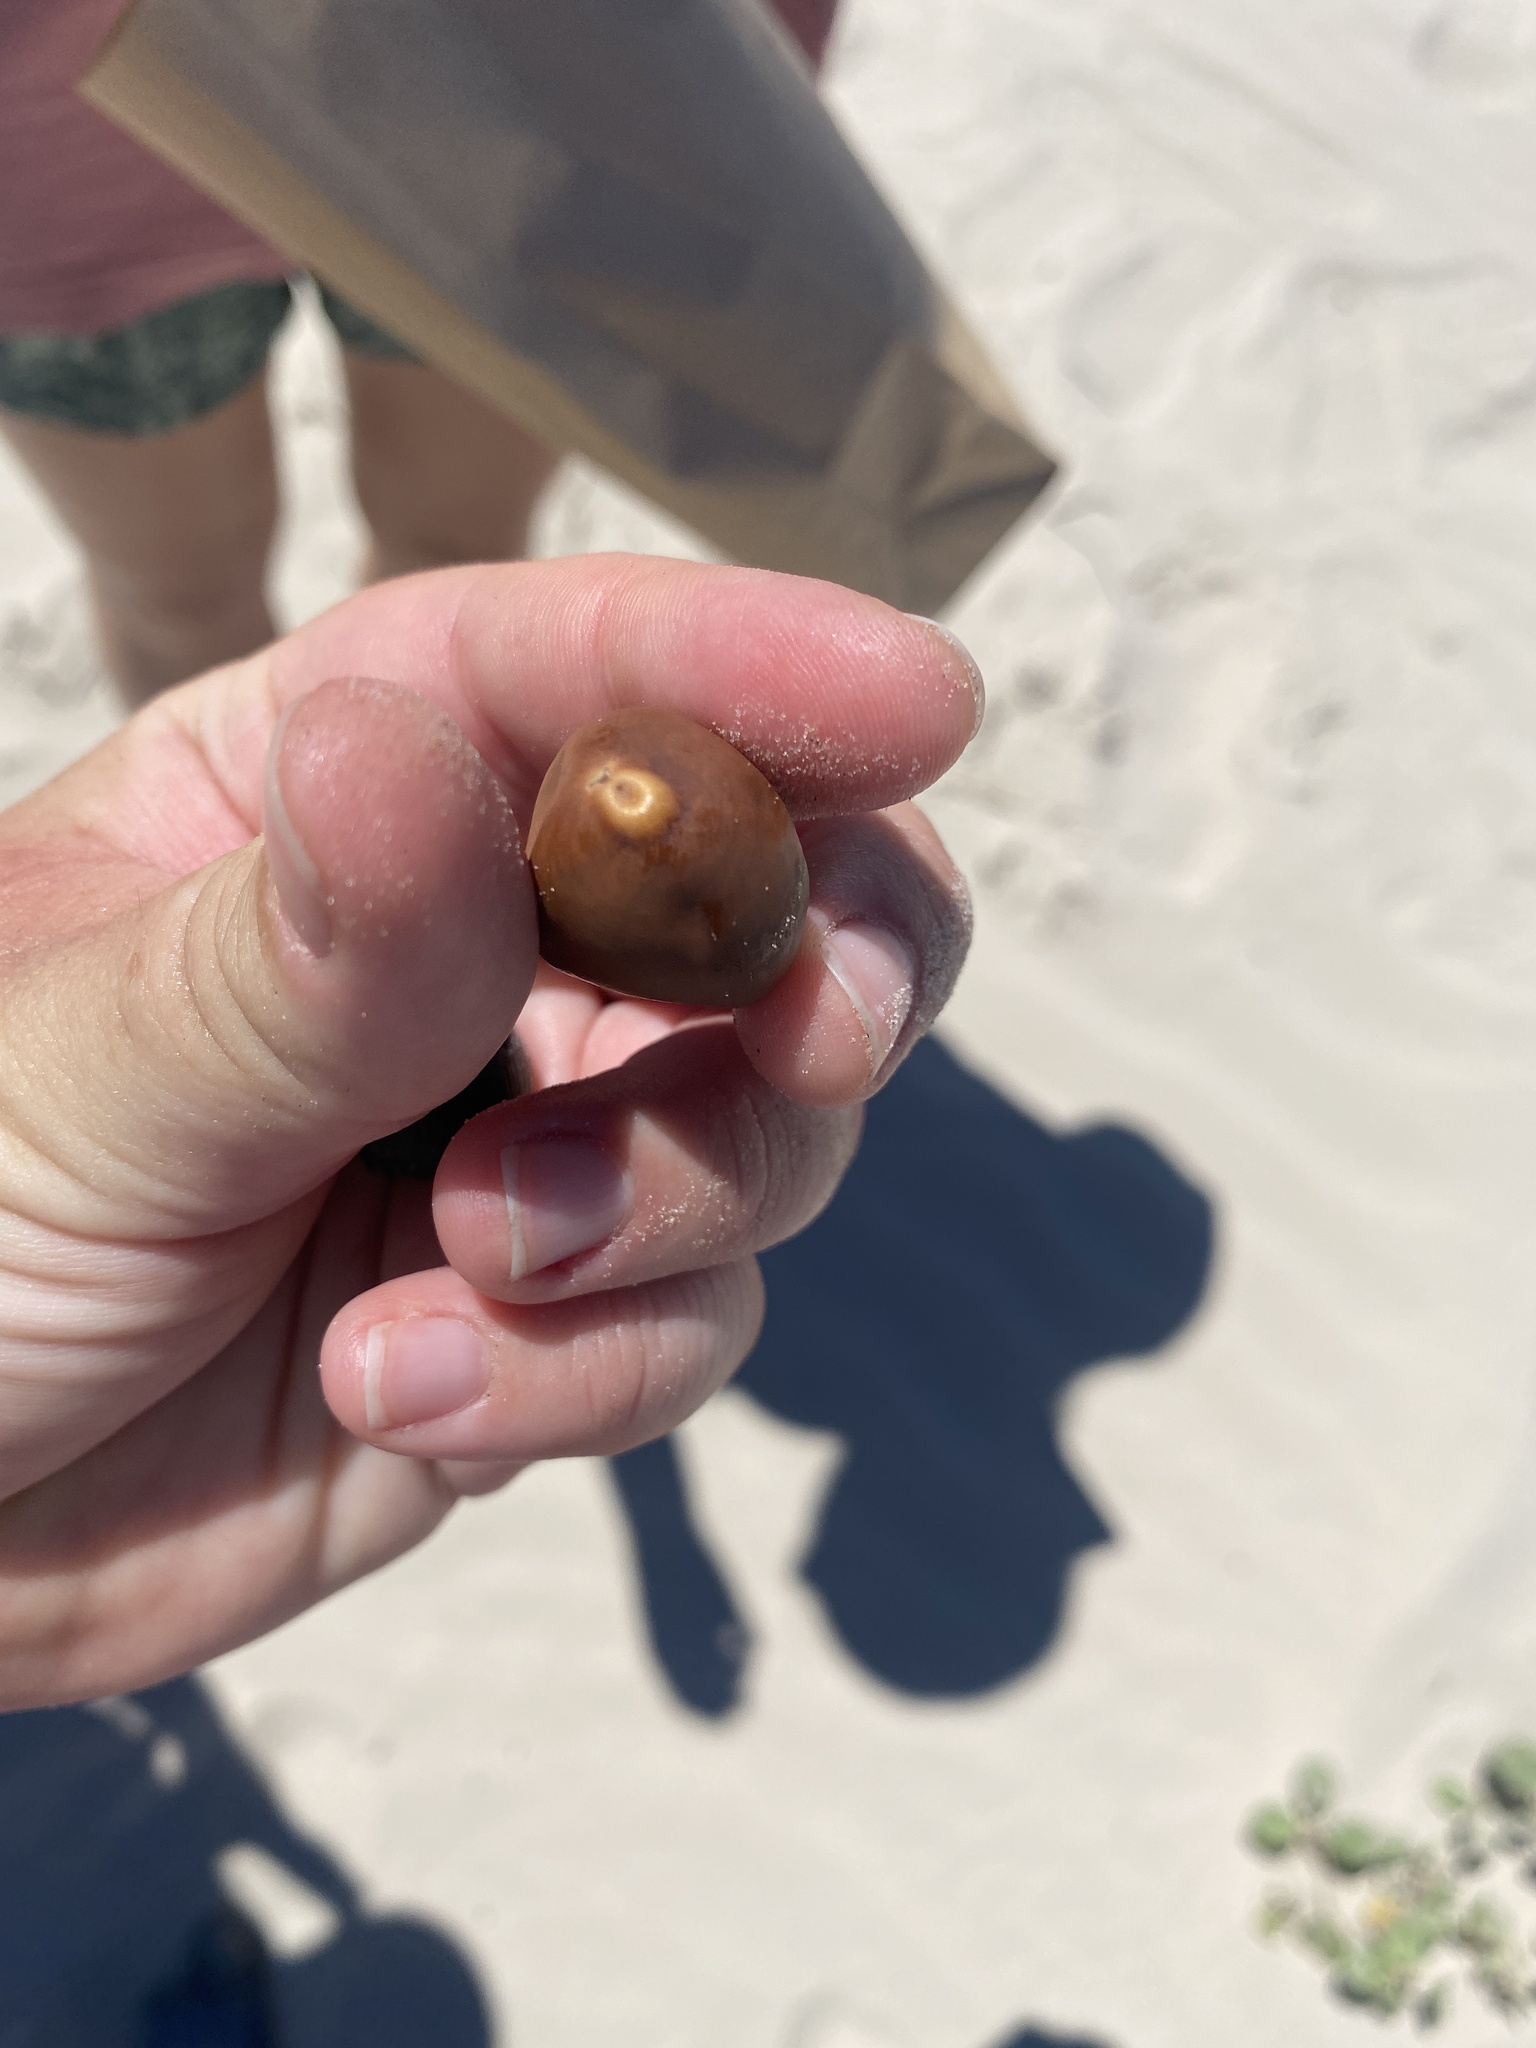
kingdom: Plantae
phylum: Tracheophyta
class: Magnoliopsida
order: Fabales
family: Fabaceae
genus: Guilandina
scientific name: Guilandina major
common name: Hawai'i pearls
